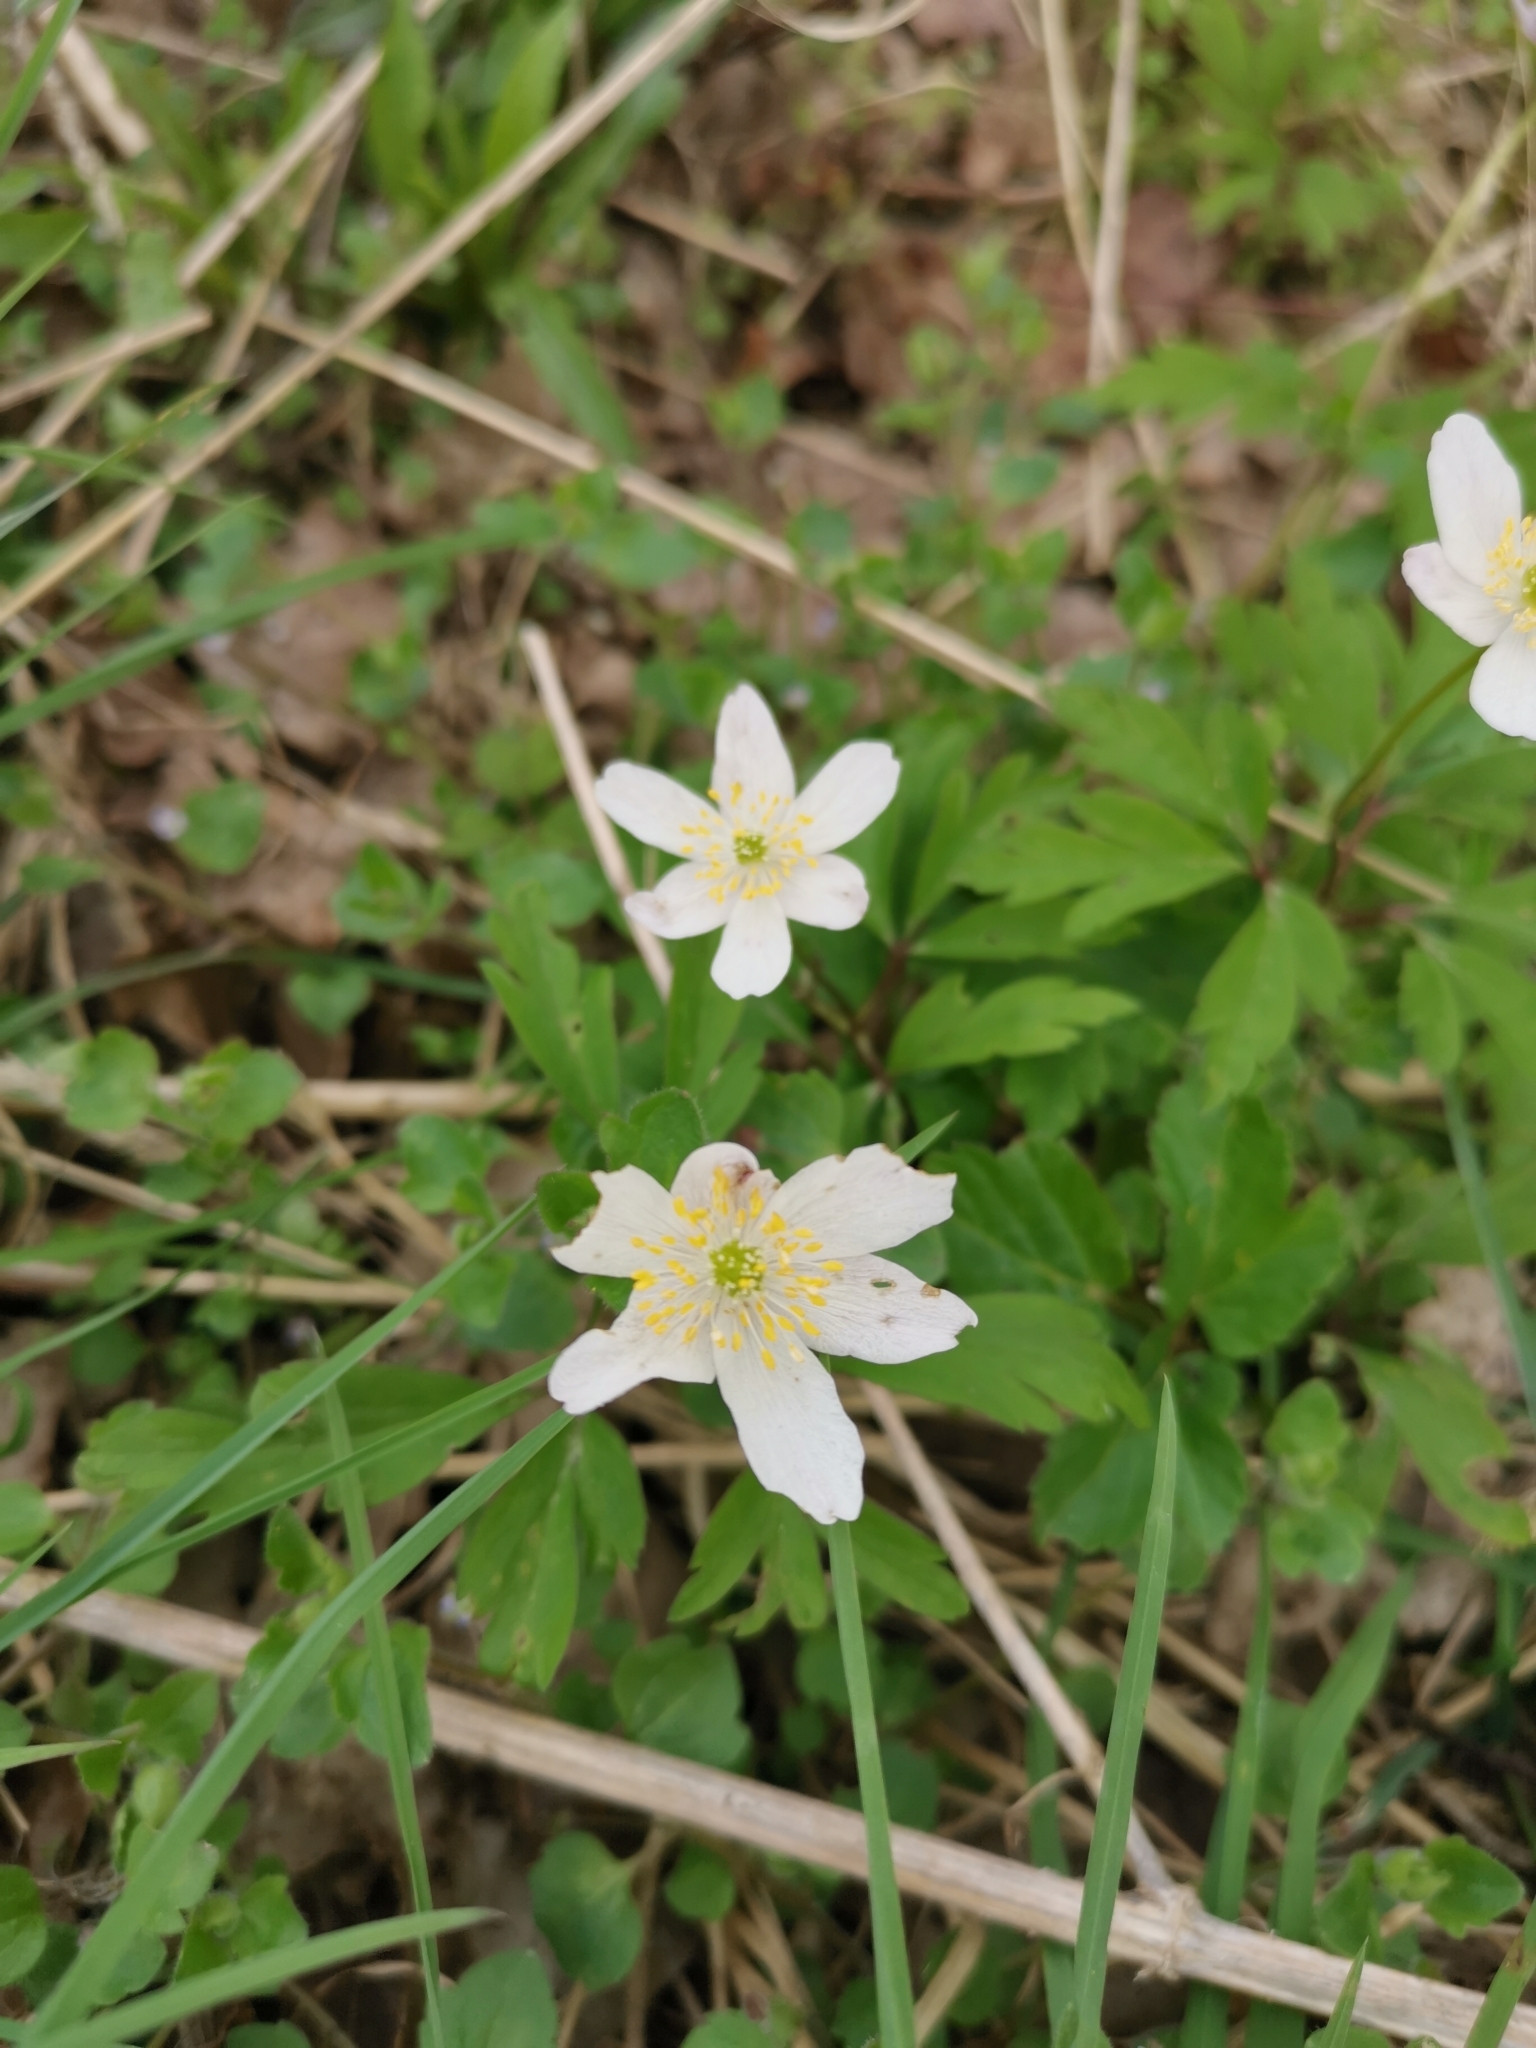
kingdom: Plantae
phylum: Tracheophyta
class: Magnoliopsida
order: Ranunculales
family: Ranunculaceae
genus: Anemone
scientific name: Anemone nemorosa
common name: Wood anemone
